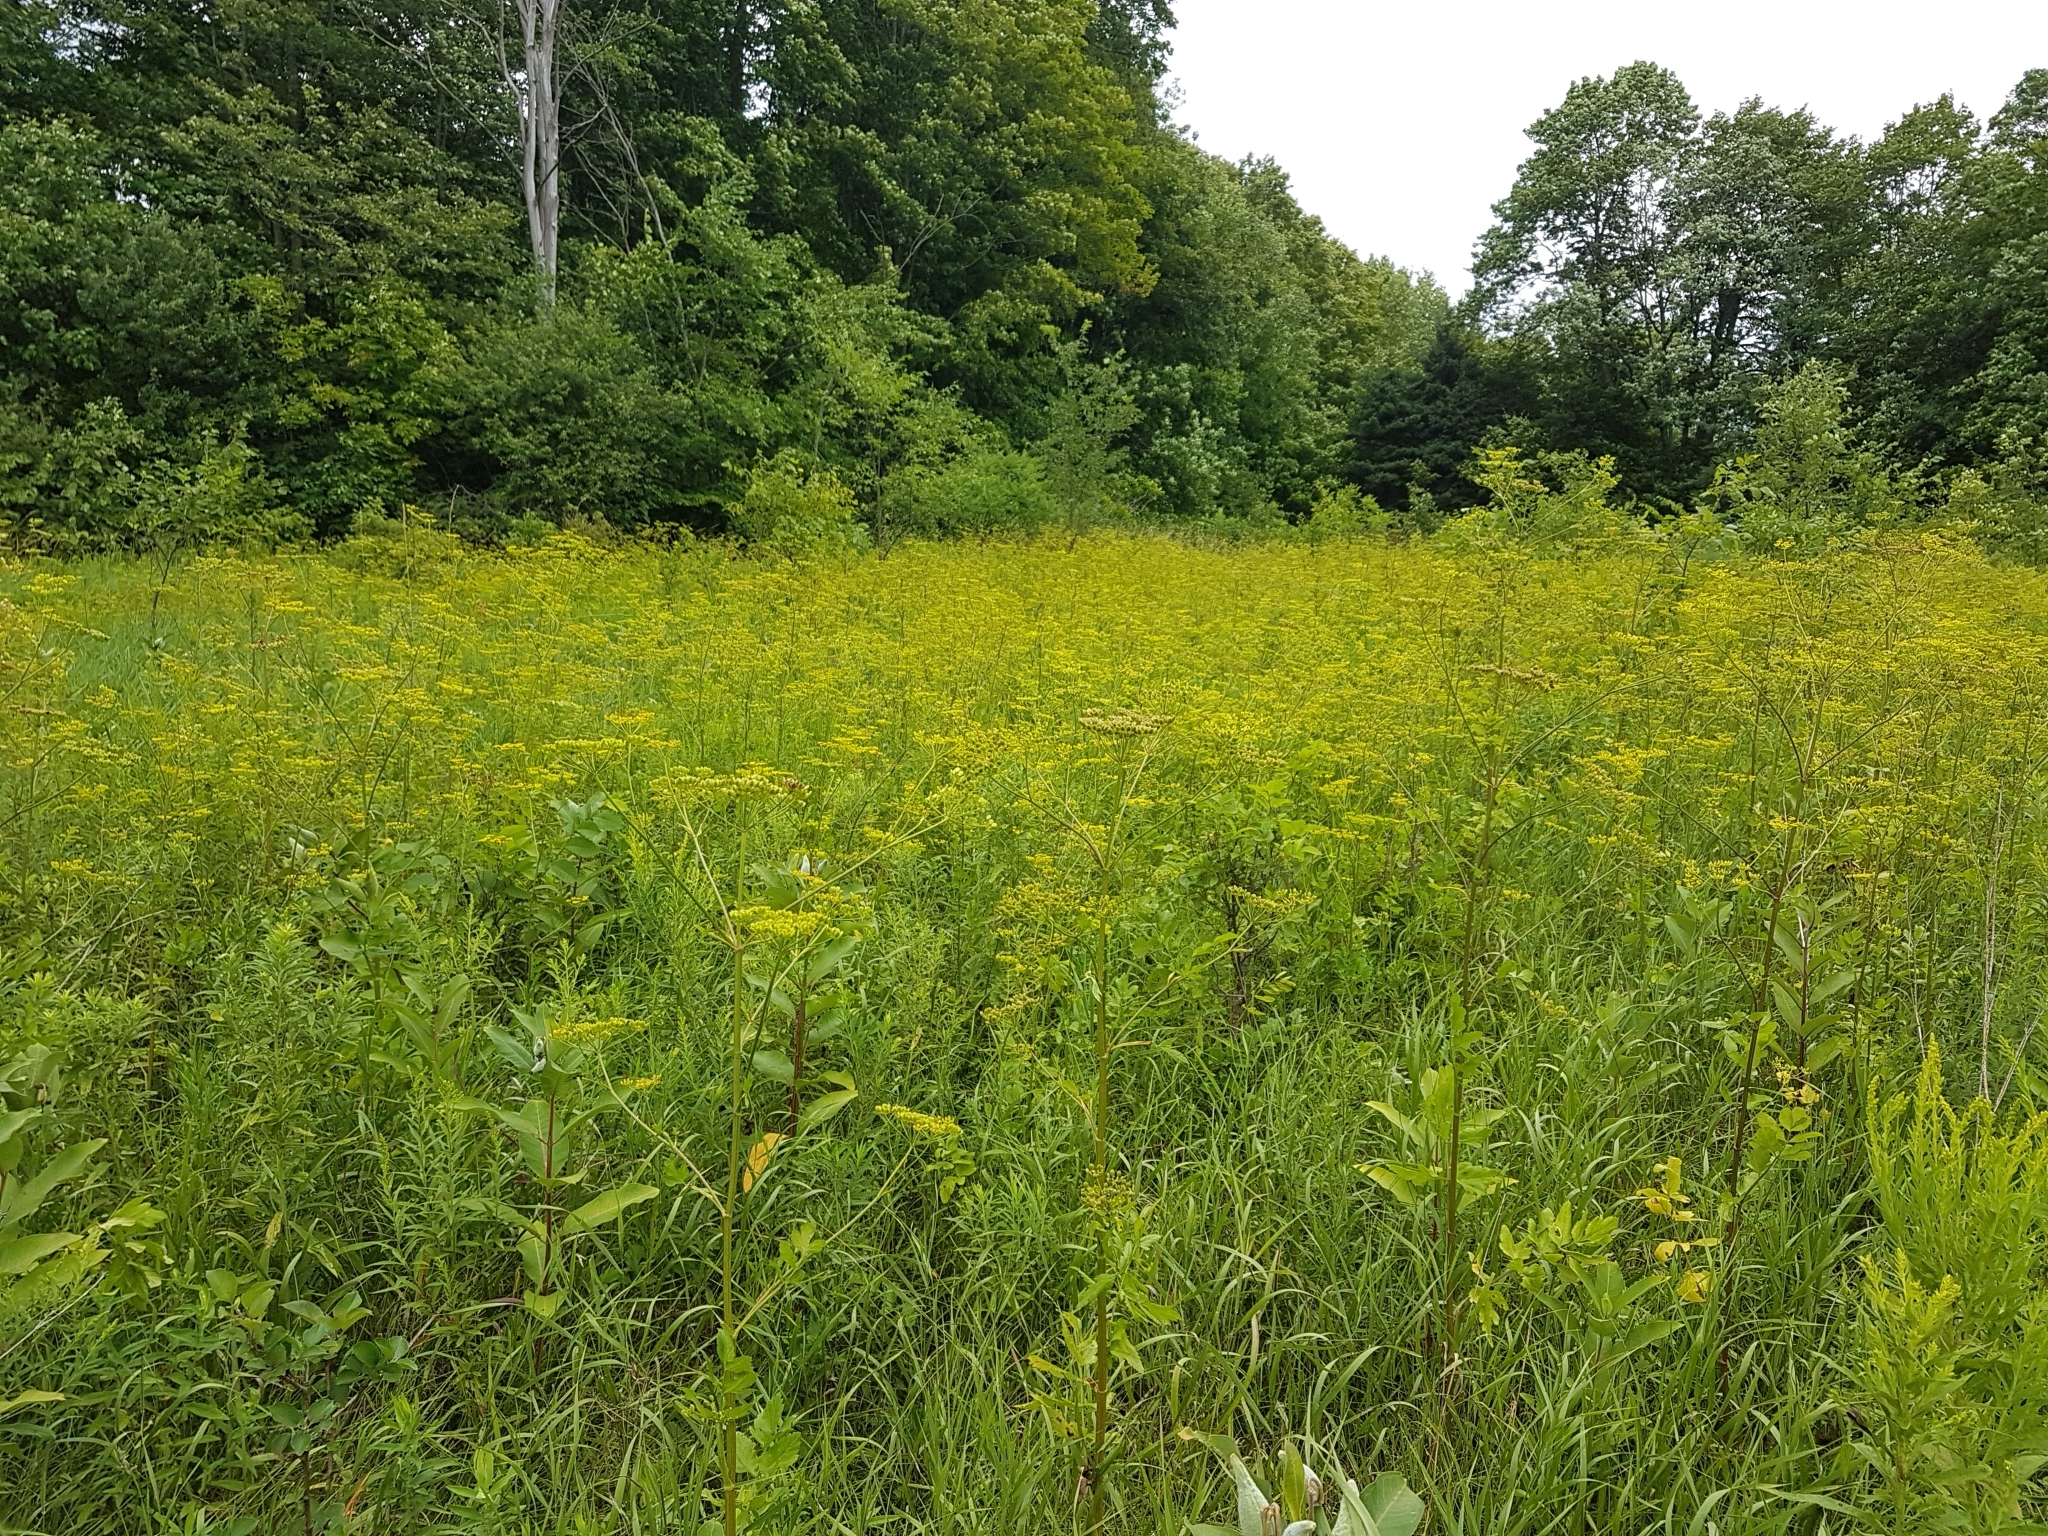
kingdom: Plantae
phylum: Tracheophyta
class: Magnoliopsida
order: Apiales
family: Apiaceae
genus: Pastinaca
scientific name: Pastinaca sativa
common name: Wild parsnip
